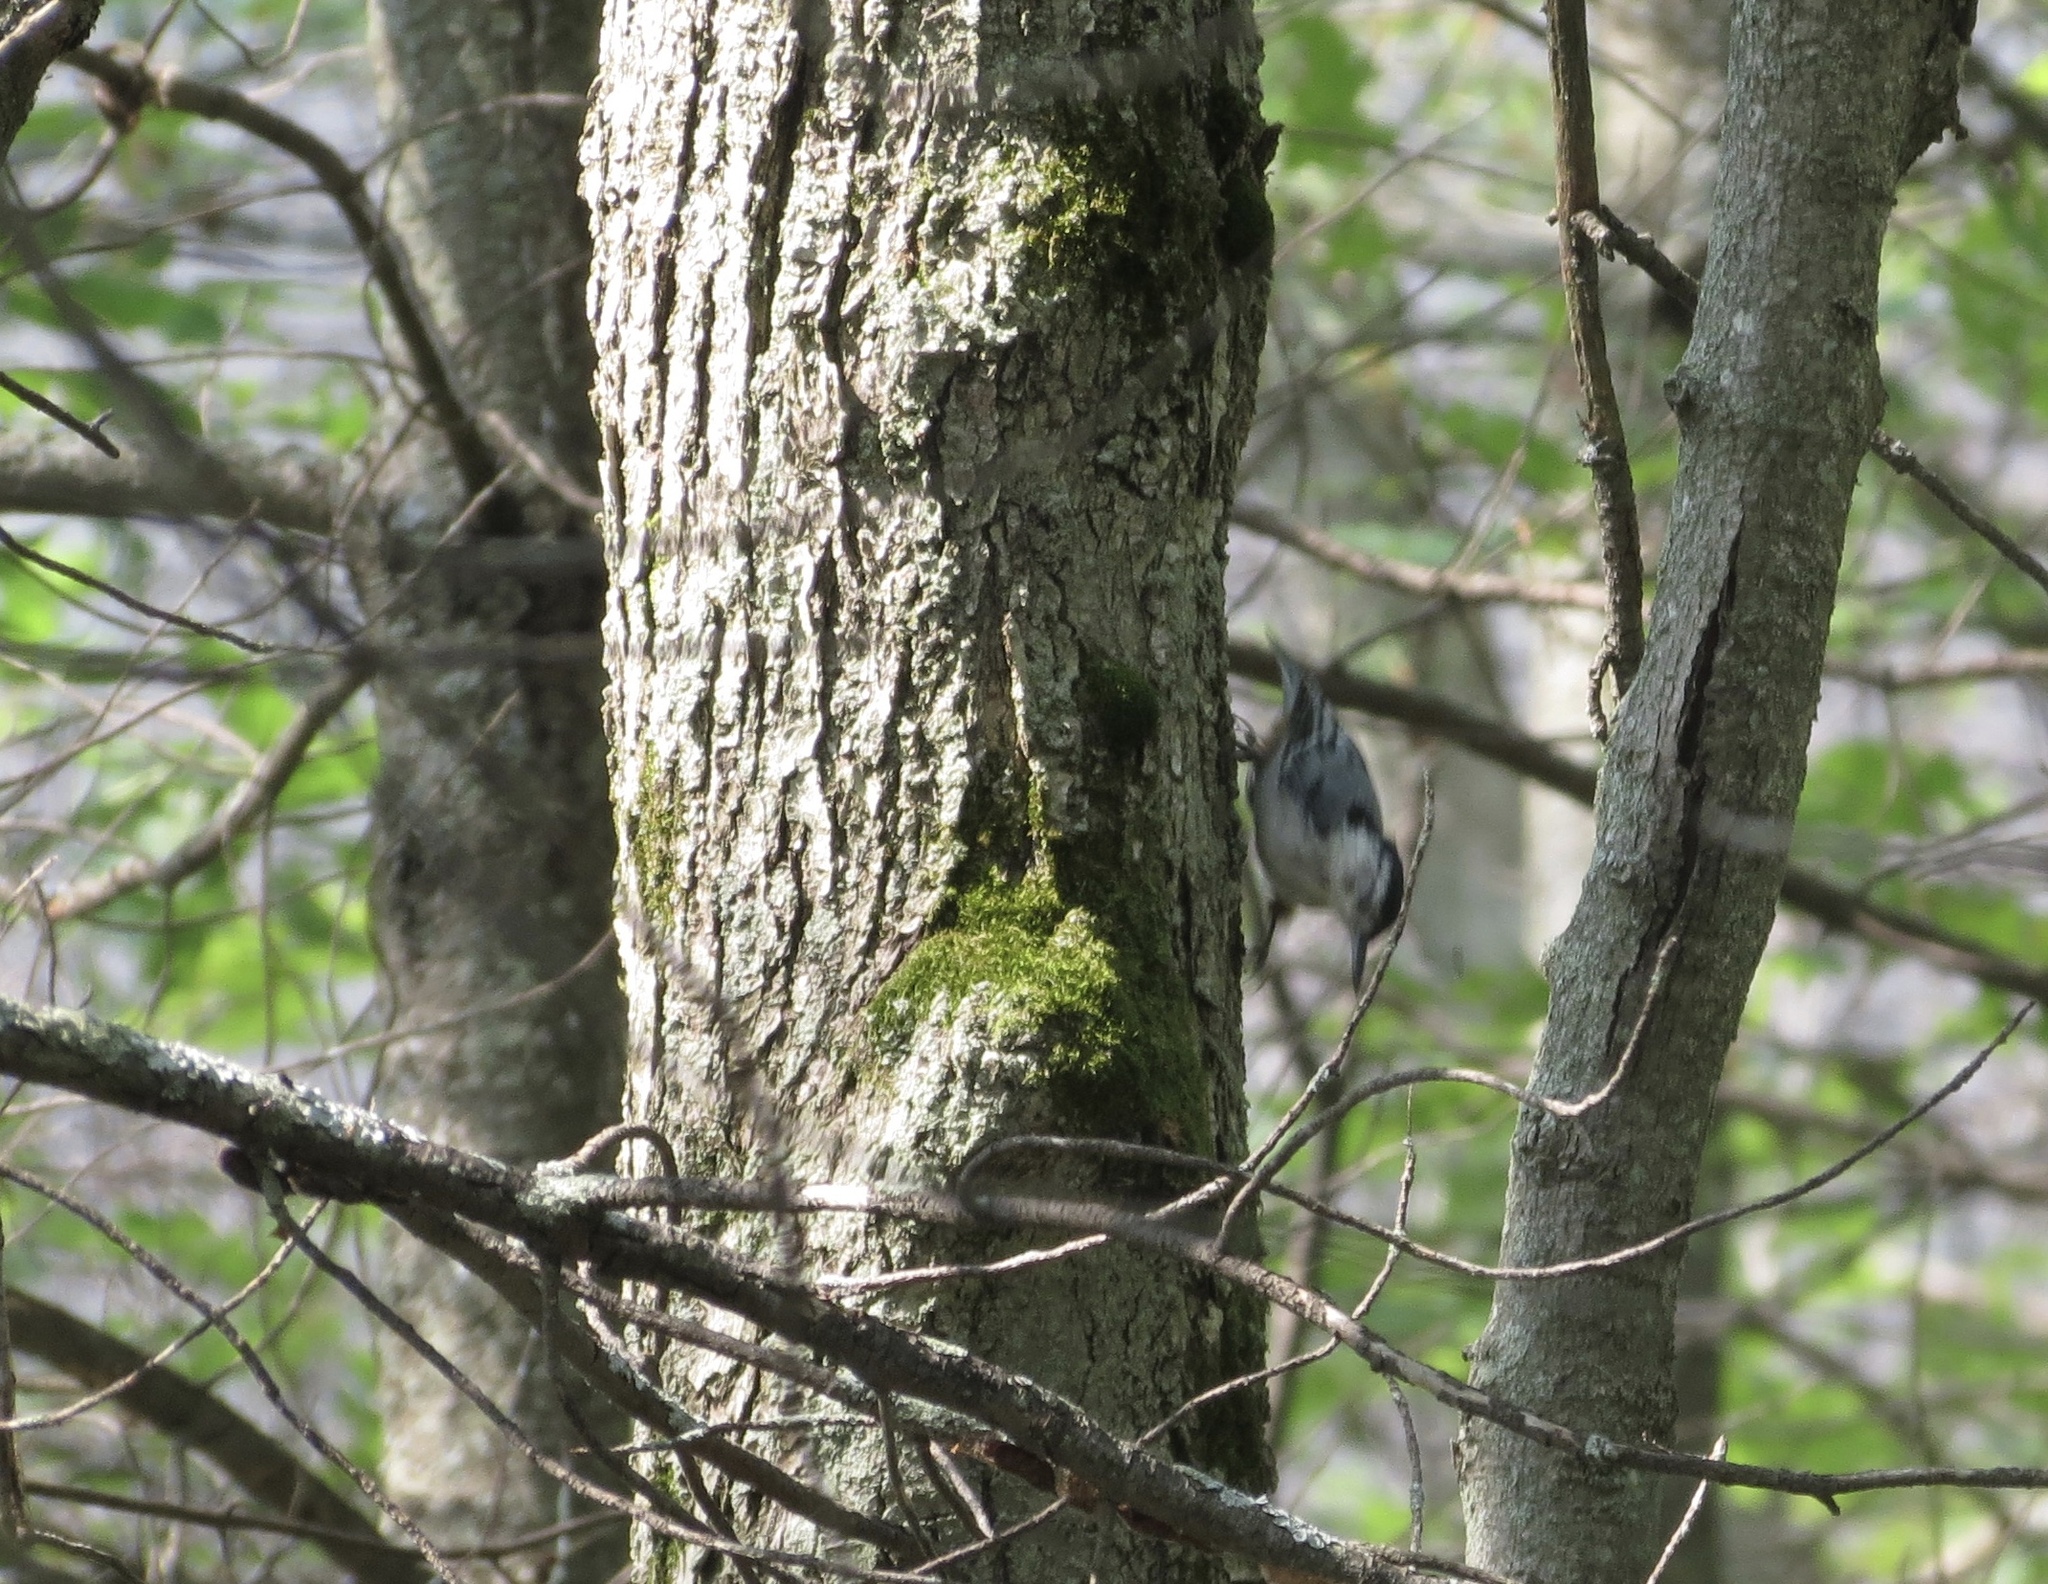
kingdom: Animalia
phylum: Chordata
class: Aves
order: Passeriformes
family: Sittidae
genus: Sitta
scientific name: Sitta carolinensis
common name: White-breasted nuthatch
